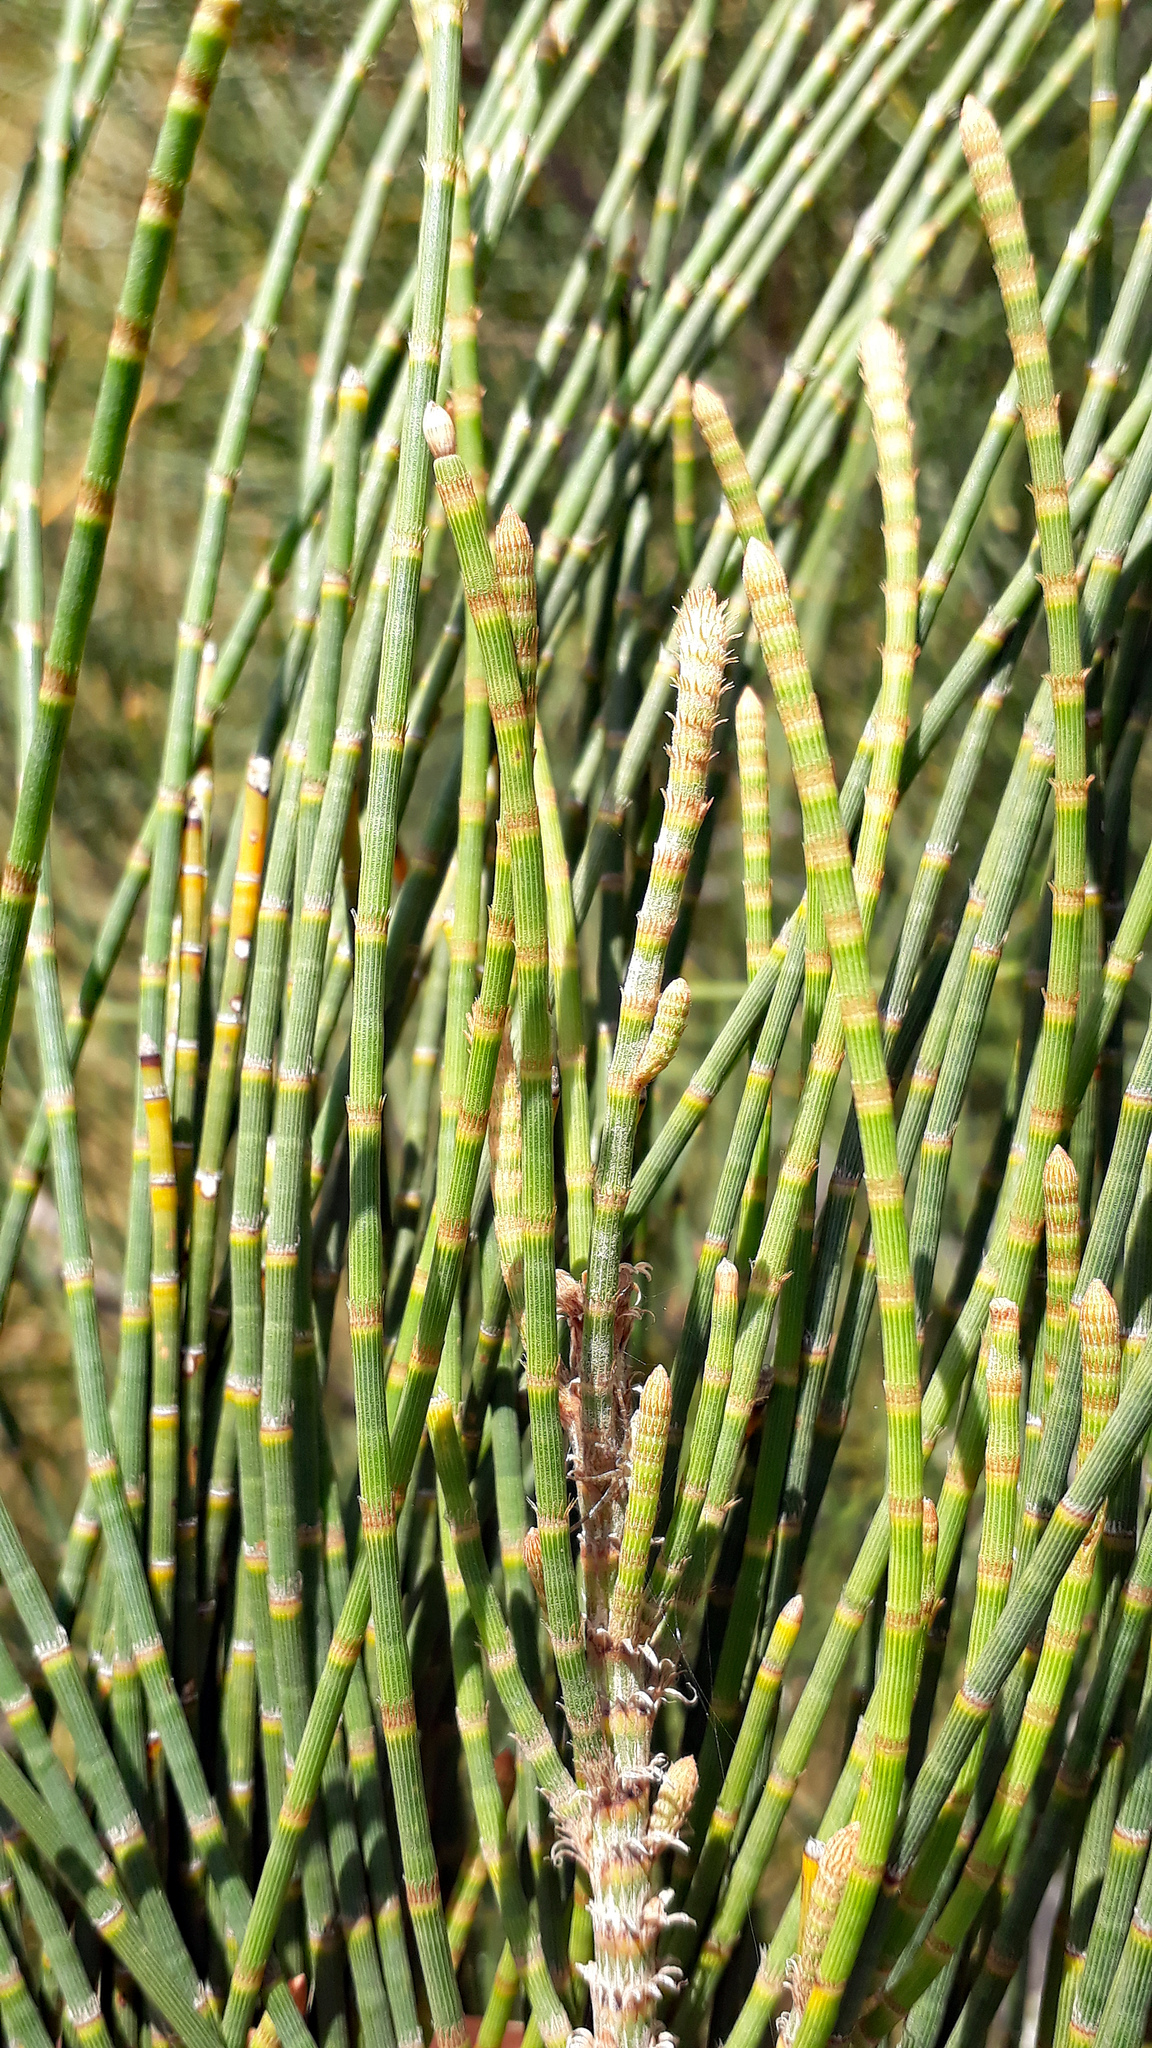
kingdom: Plantae
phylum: Tracheophyta
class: Magnoliopsida
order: Fagales
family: Casuarinaceae
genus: Casuarina
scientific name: Casuarina glauca
